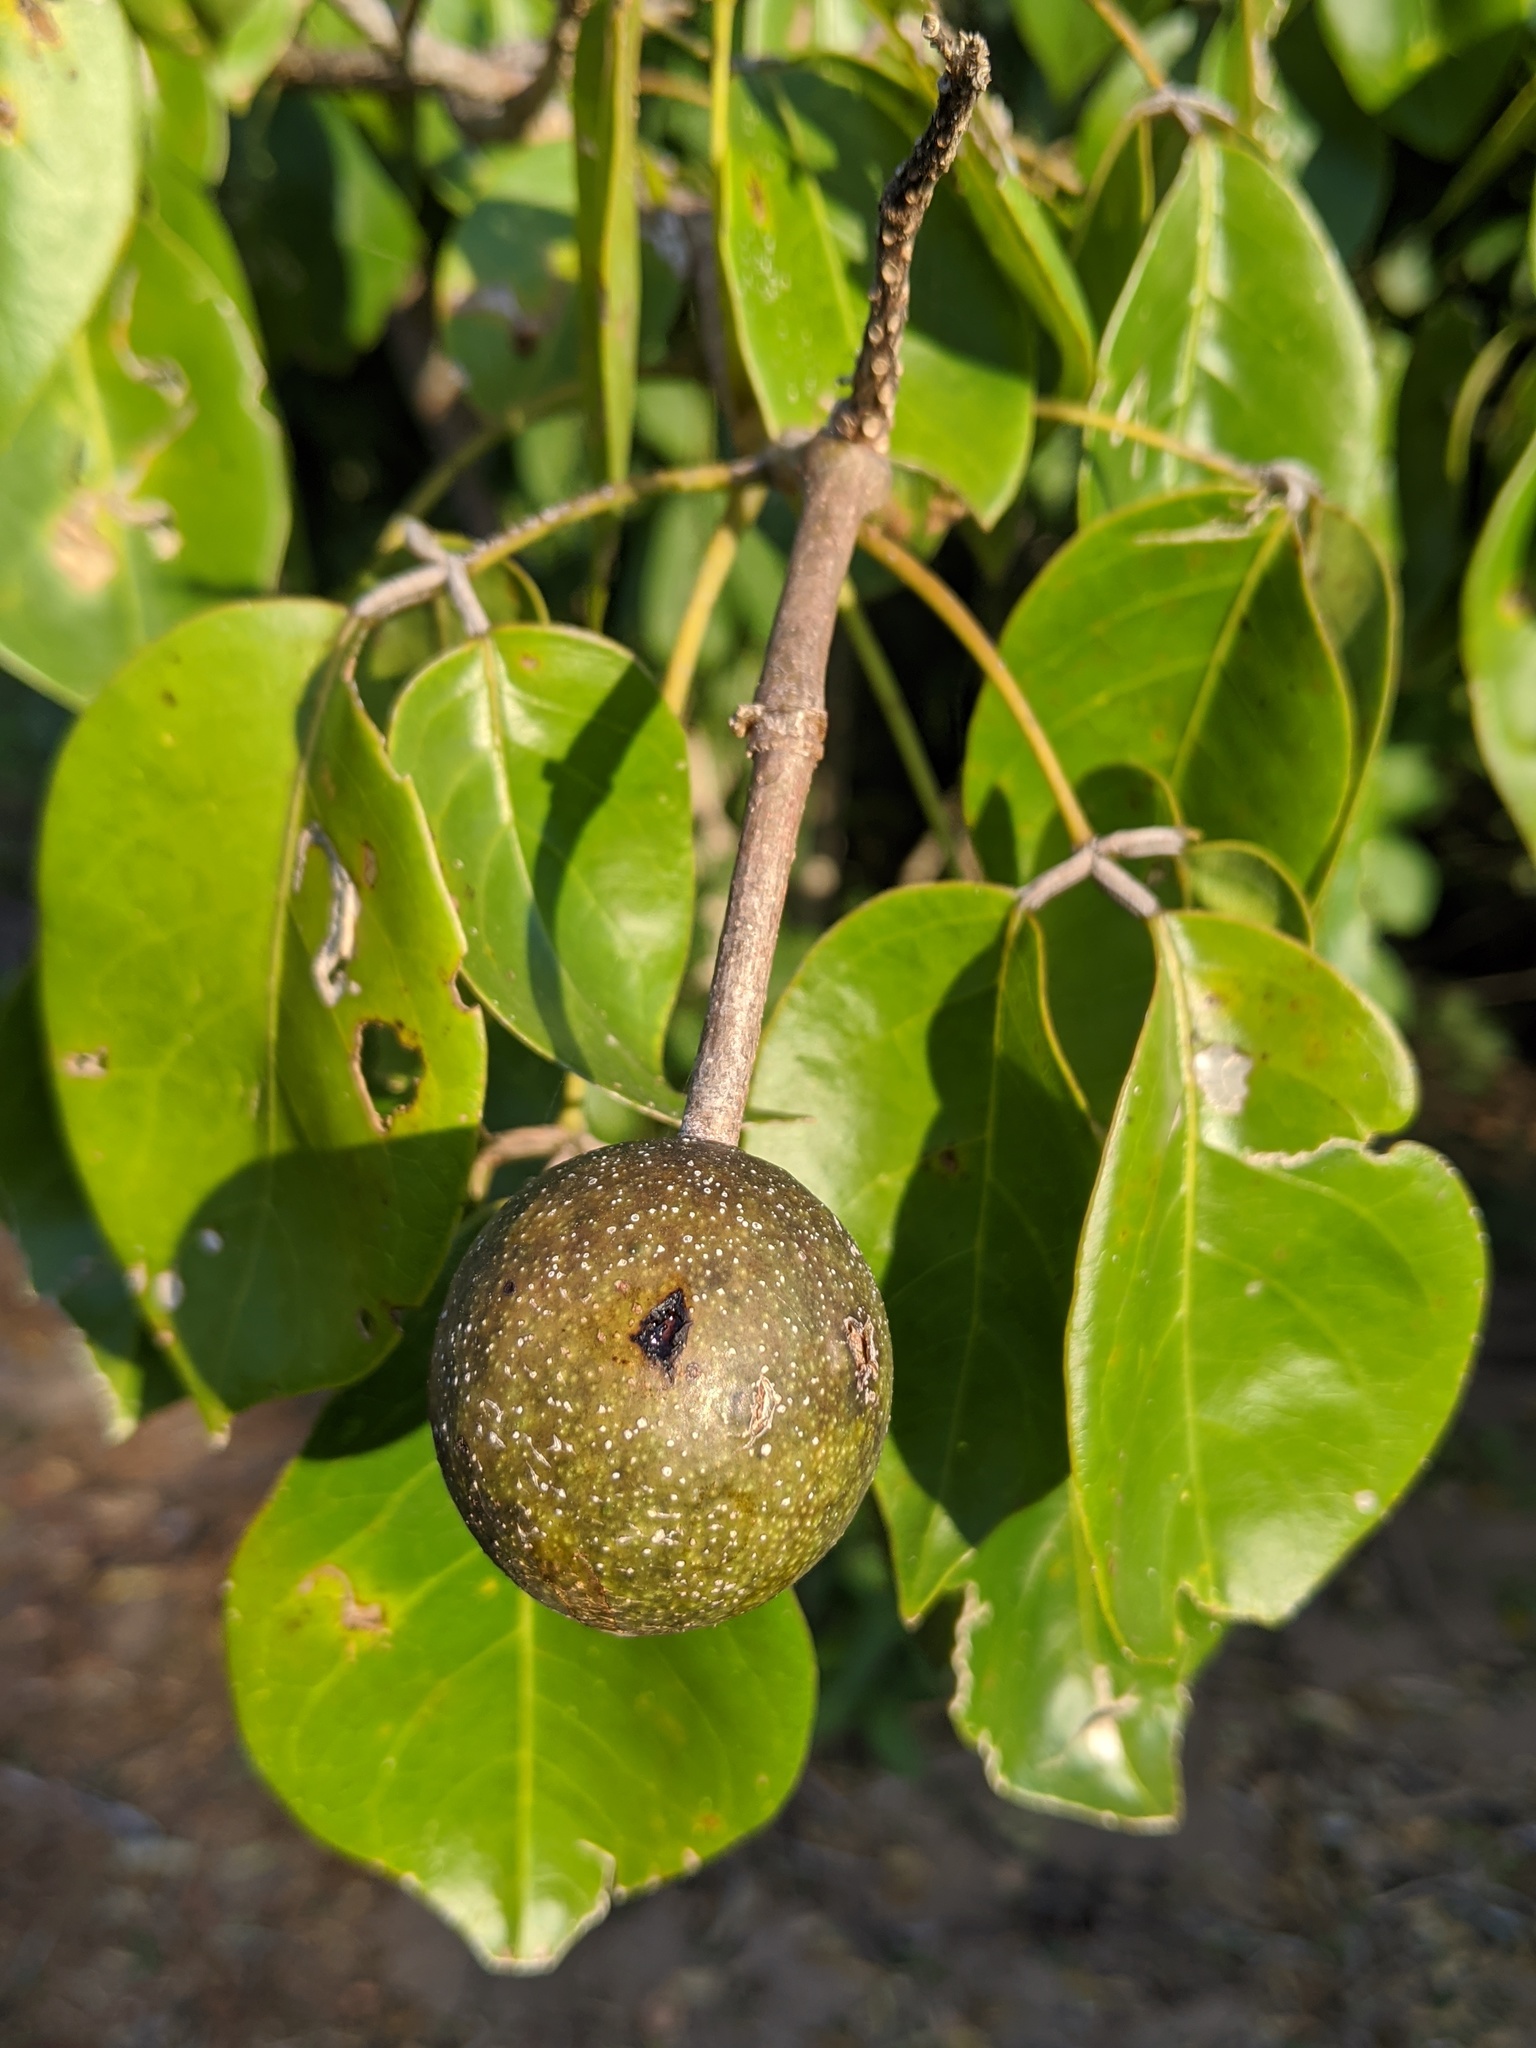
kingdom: Plantae
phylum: Tracheophyta
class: Magnoliopsida
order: Brassicales
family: Capparaceae
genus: Crateva
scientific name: Crateva tapia
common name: Garlic-pear
